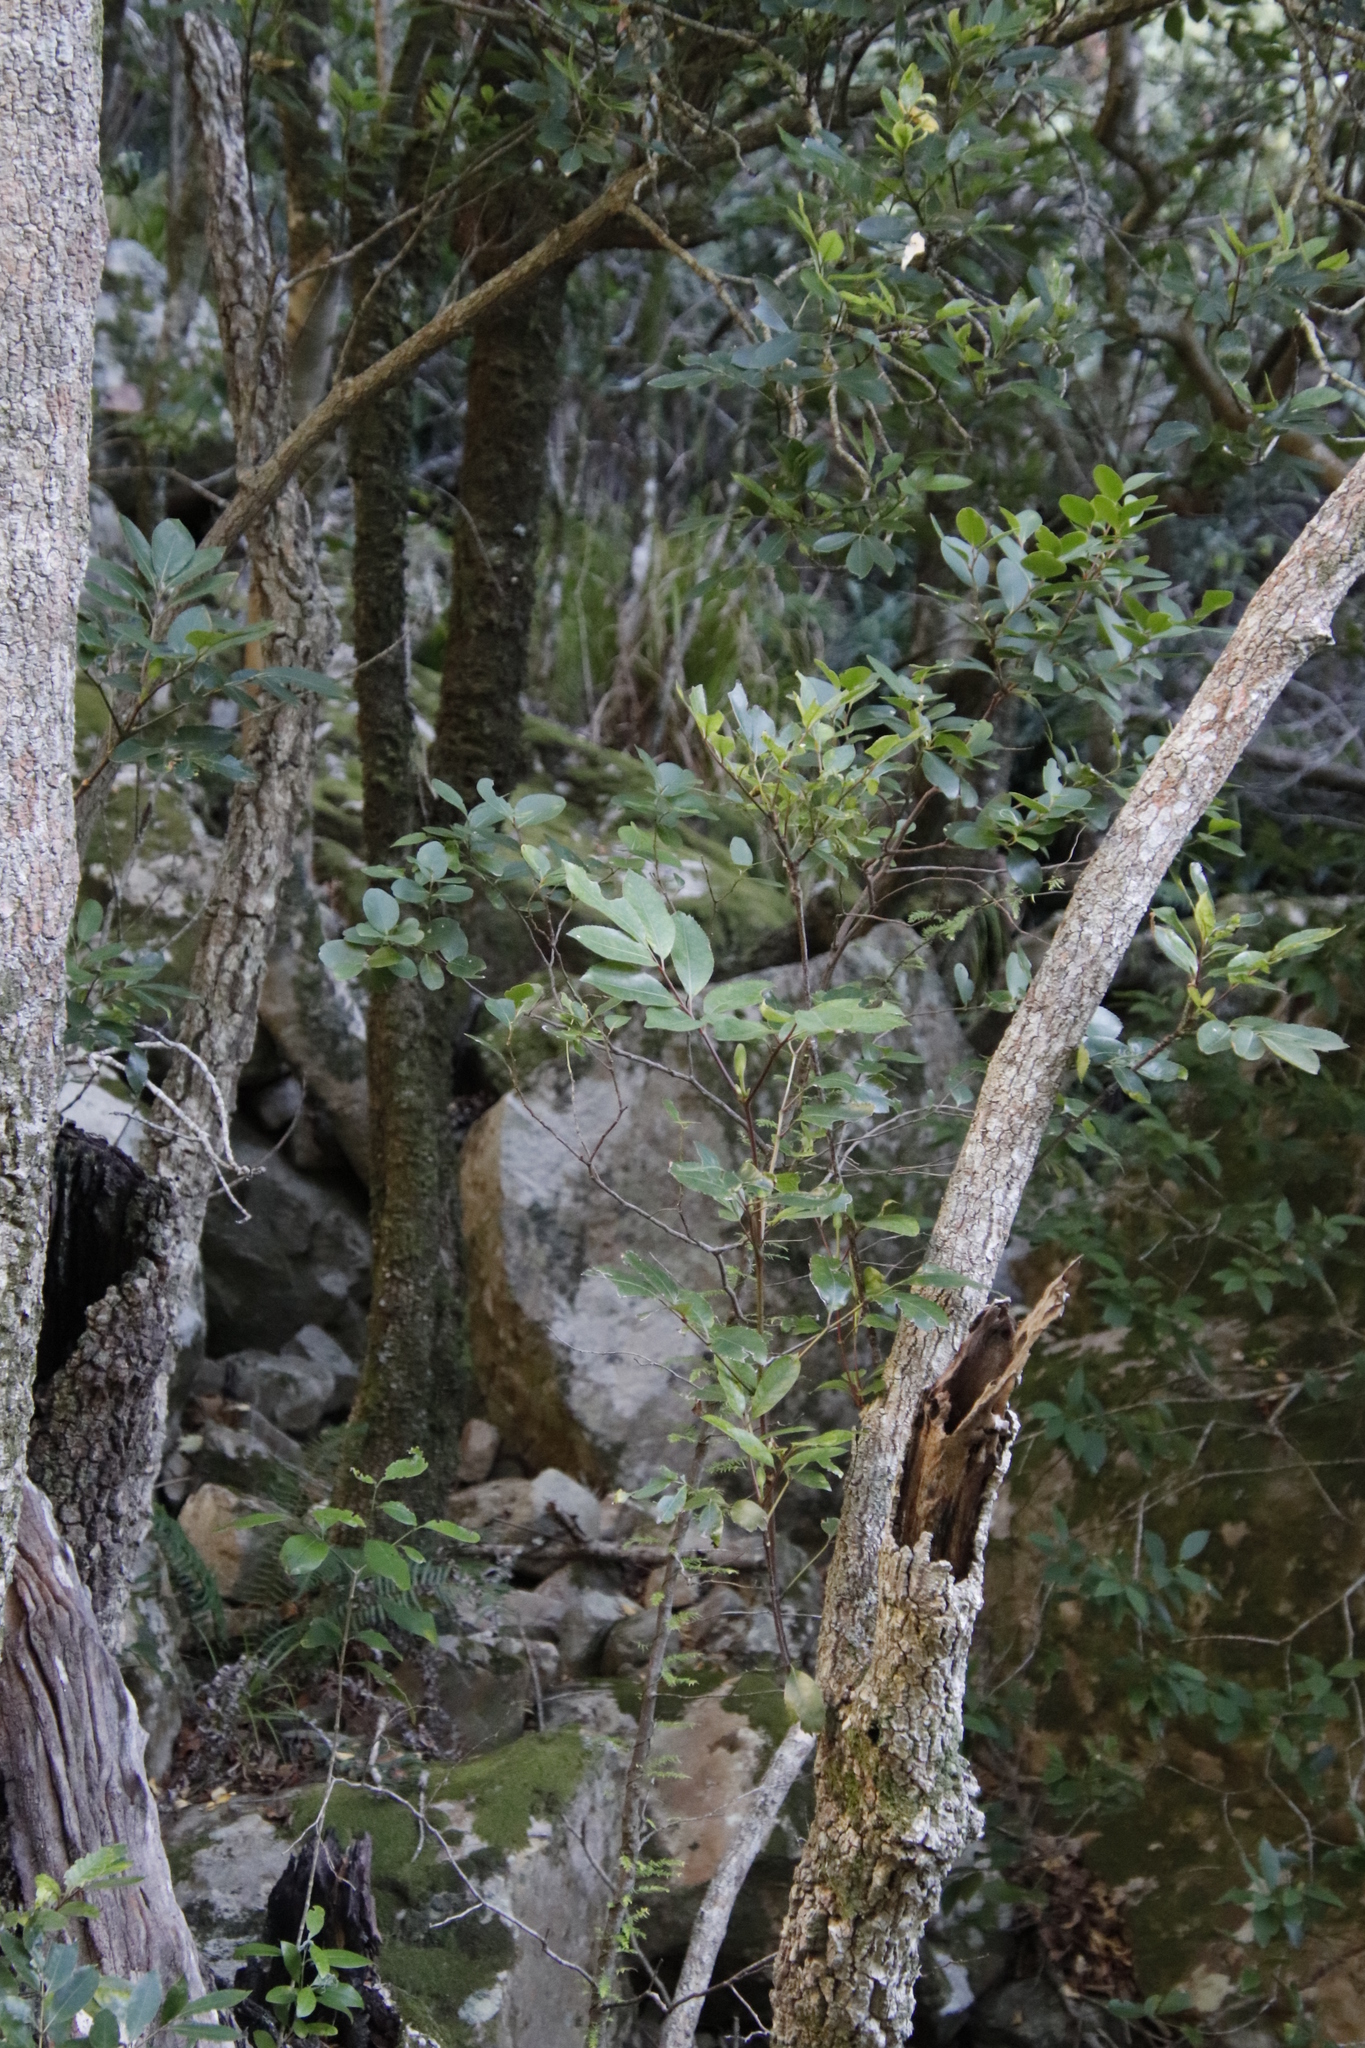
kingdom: Plantae
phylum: Tracheophyta
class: Magnoliopsida
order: Oxalidales
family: Cunoniaceae
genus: Cunonia
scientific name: Cunonia capensis
